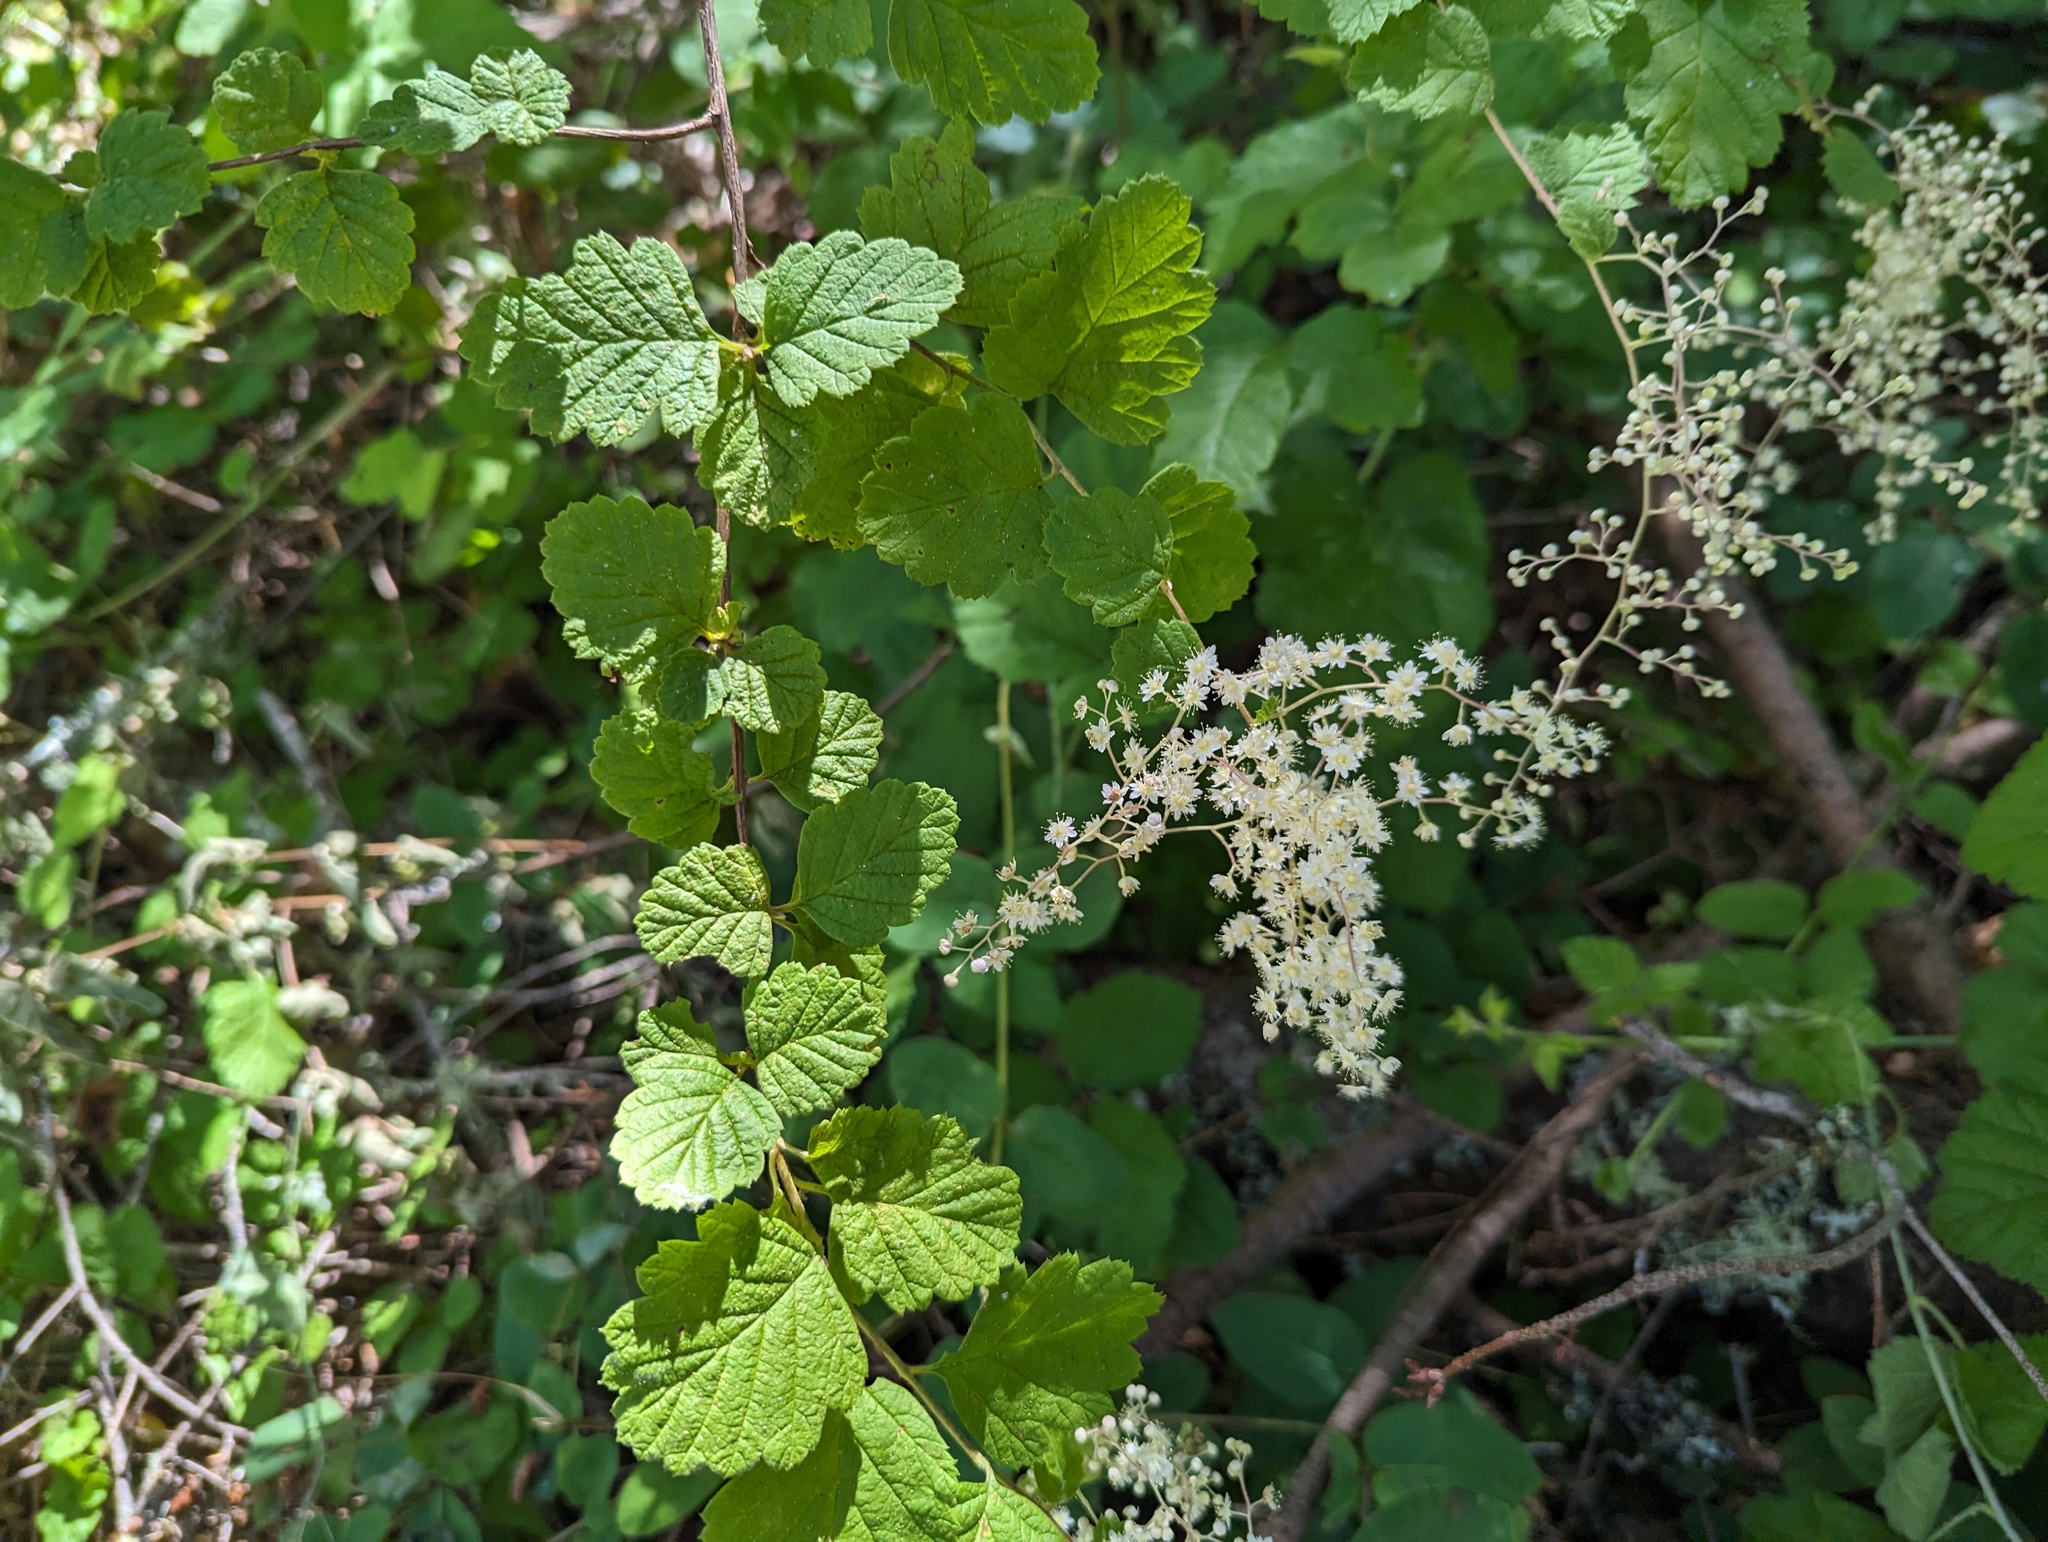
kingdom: Plantae
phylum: Tracheophyta
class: Magnoliopsida
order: Rosales
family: Rosaceae
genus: Holodiscus
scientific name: Holodiscus discolor
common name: Oceanspray
